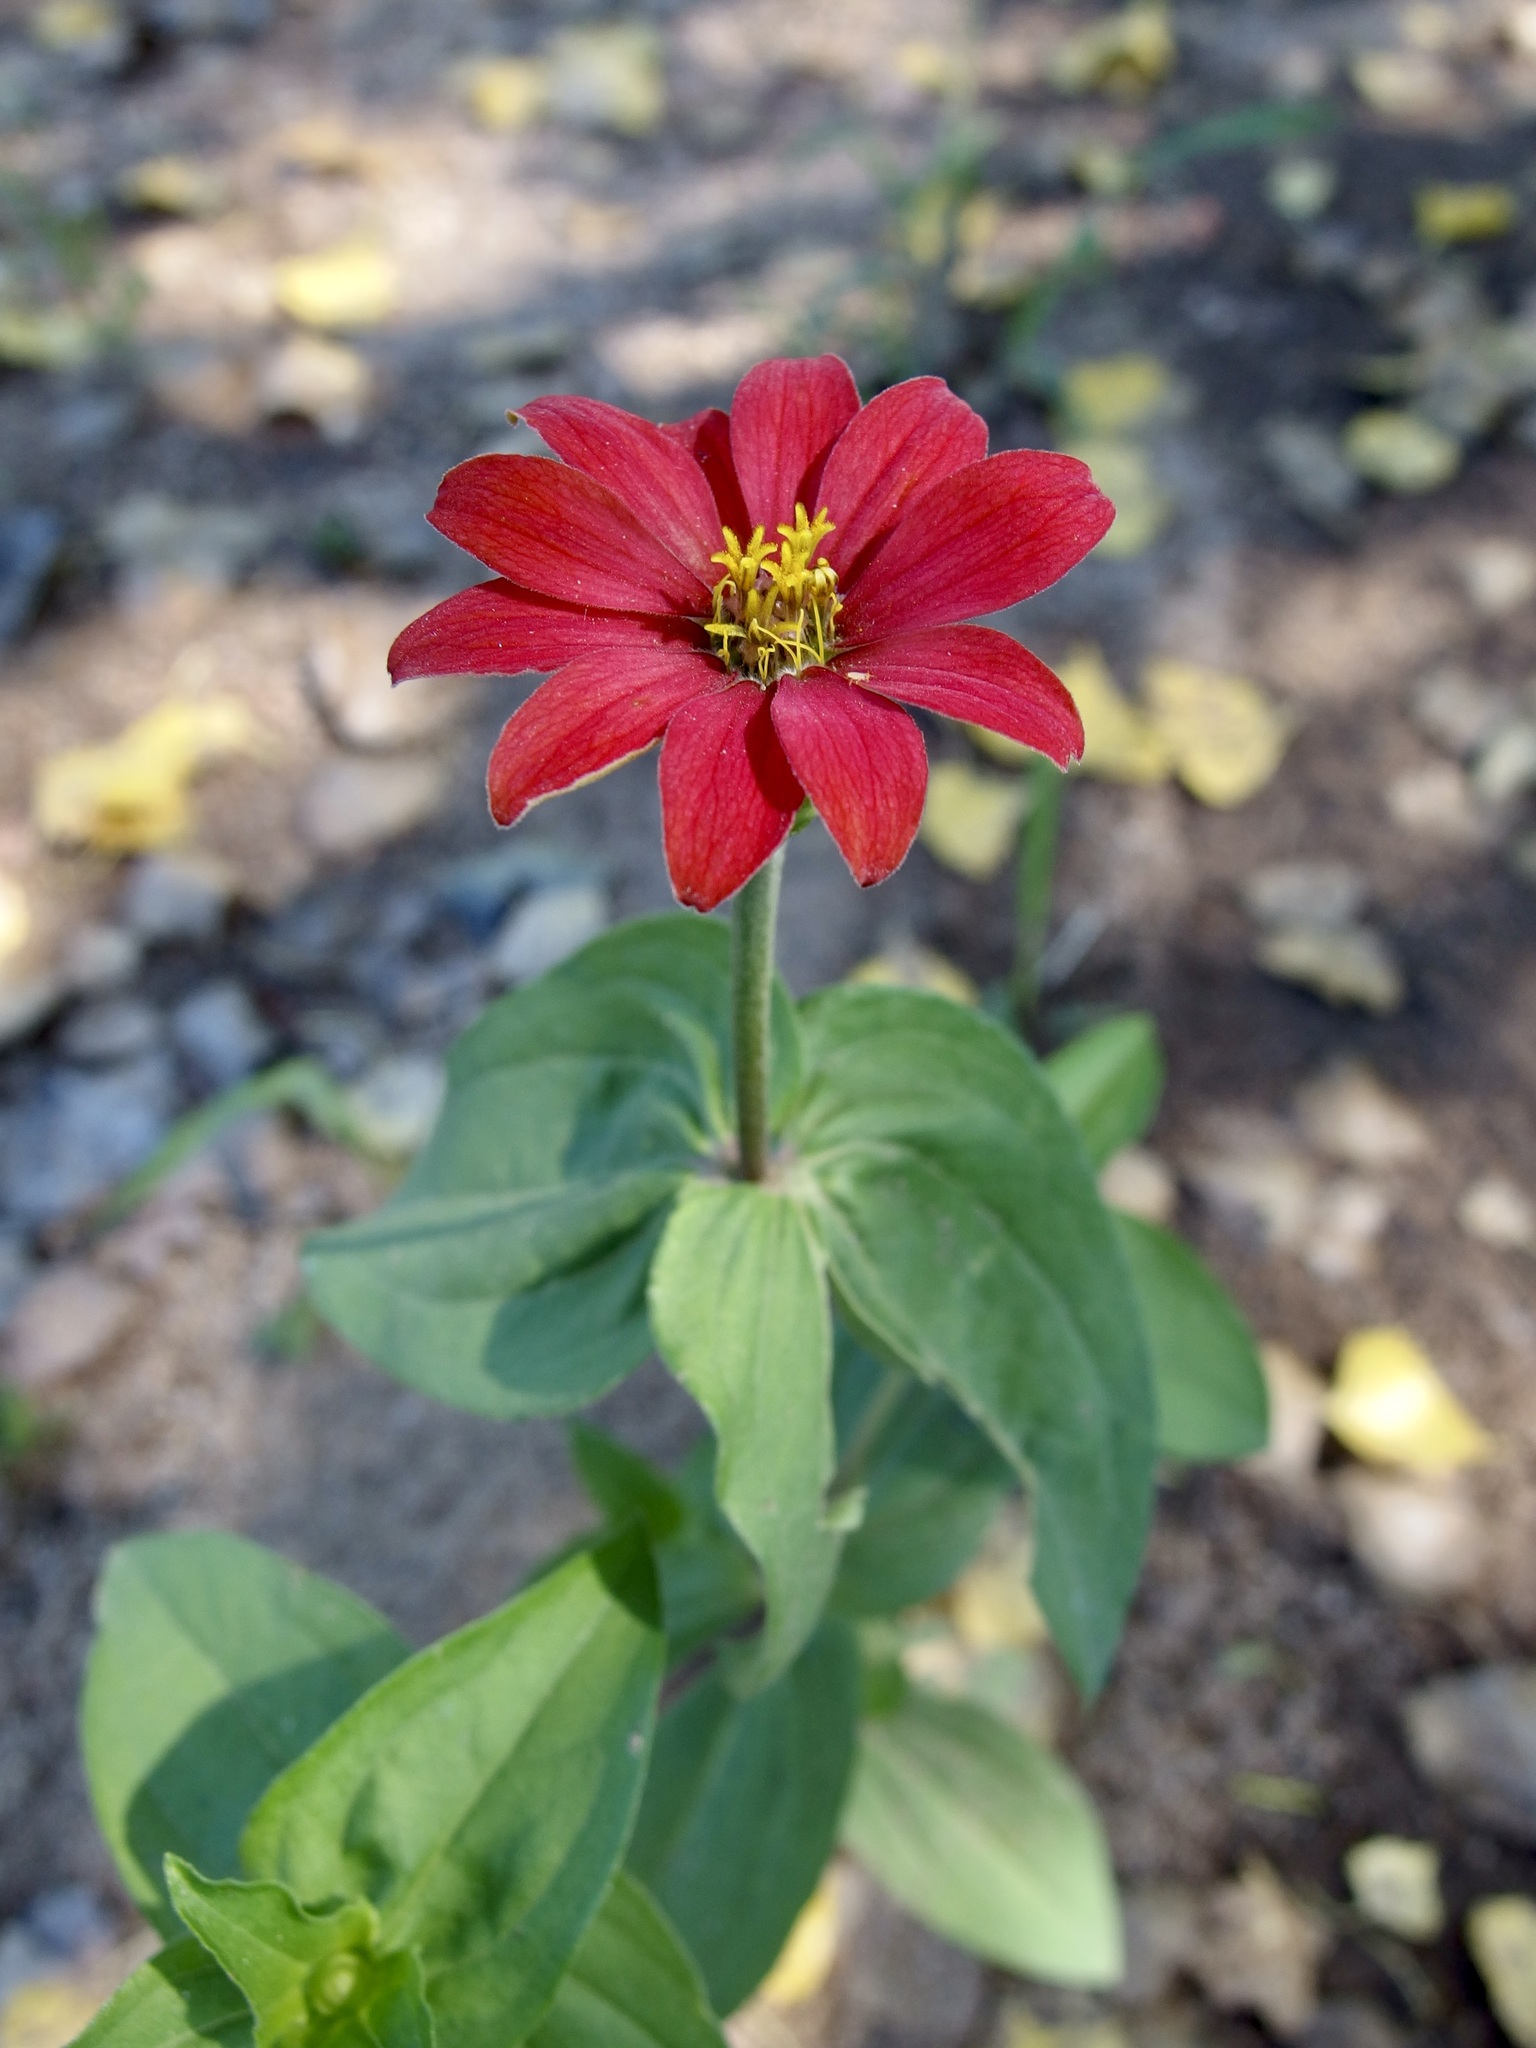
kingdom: Plantae
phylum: Tracheophyta
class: Magnoliopsida
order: Asterales
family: Asteraceae
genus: Zinnia
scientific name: Zinnia peruviana
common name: Peruvian zinnia
